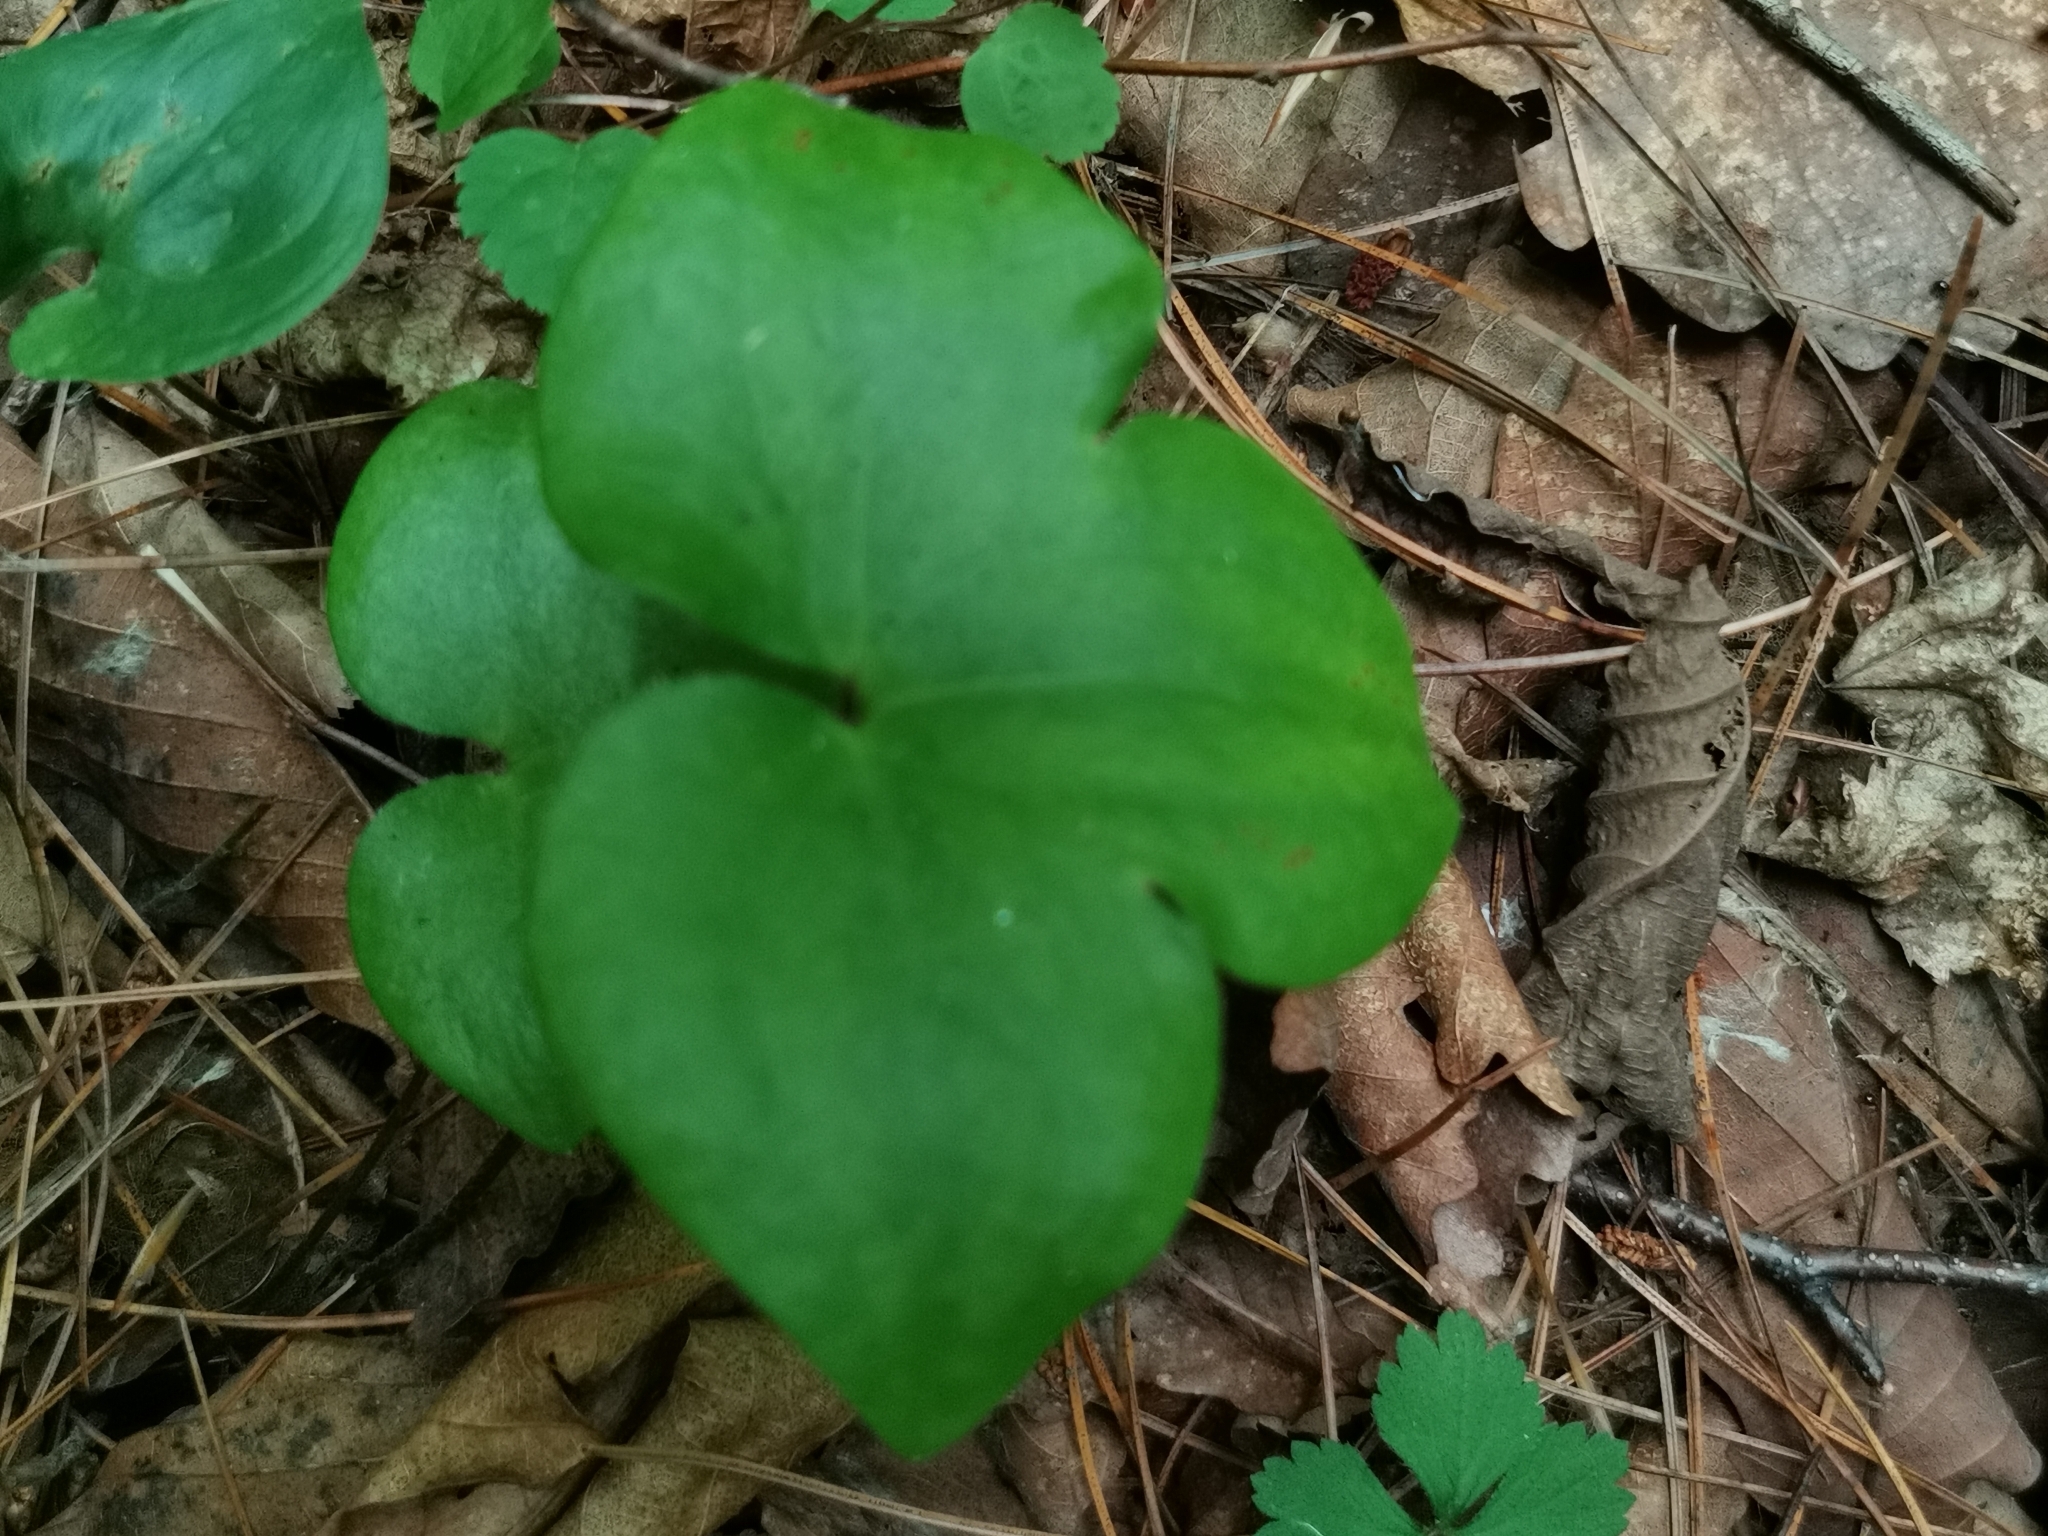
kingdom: Plantae
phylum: Tracheophyta
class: Magnoliopsida
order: Ranunculales
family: Ranunculaceae
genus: Hepatica
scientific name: Hepatica asiatica
